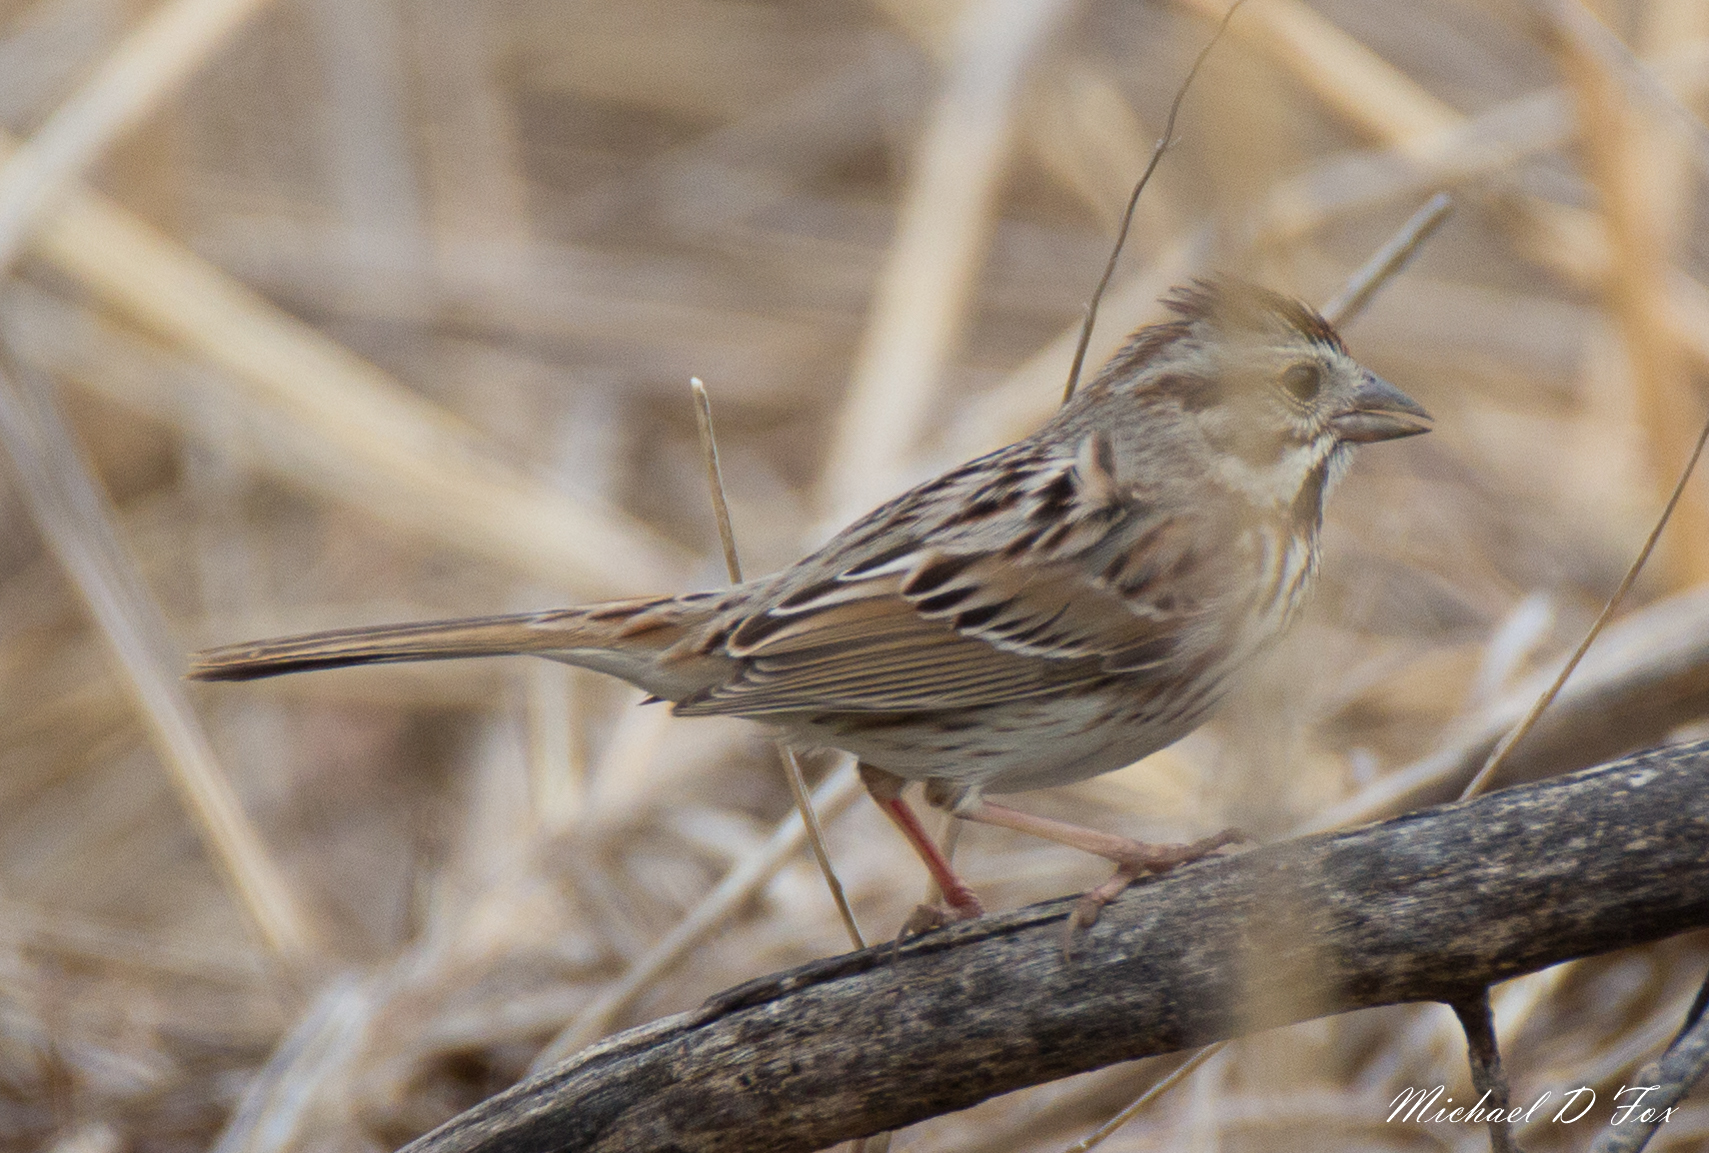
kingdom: Animalia
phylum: Chordata
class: Aves
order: Passeriformes
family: Passerellidae
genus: Melospiza
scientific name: Melospiza melodia
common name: Song sparrow
